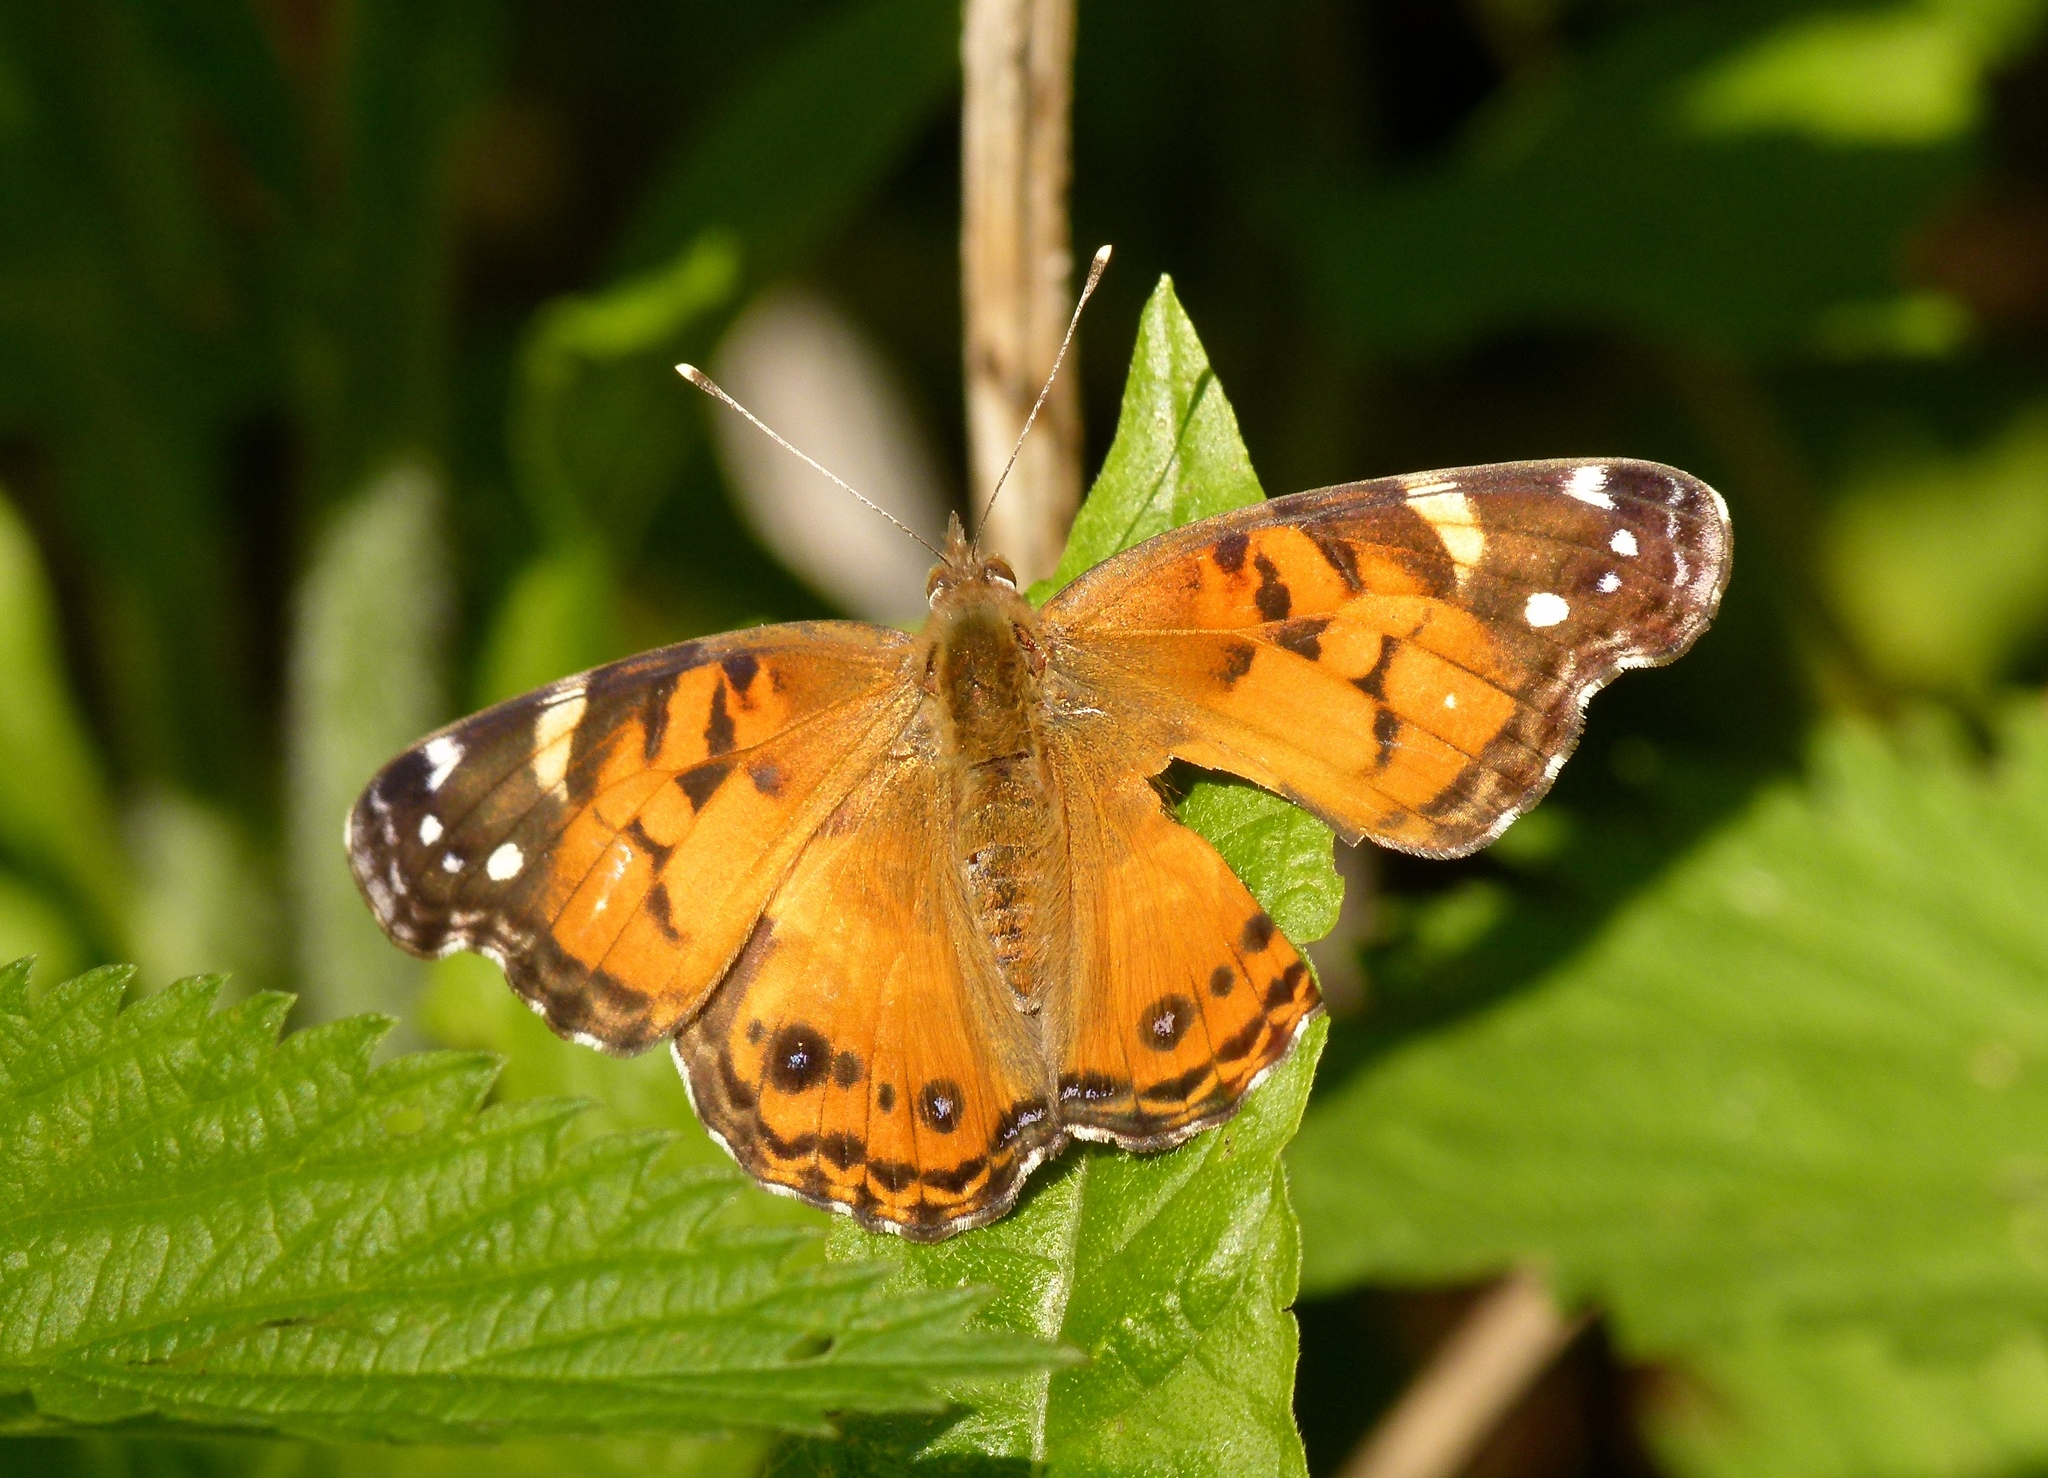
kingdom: Animalia
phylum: Arthropoda
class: Insecta
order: Lepidoptera
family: Nymphalidae
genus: Vanessa
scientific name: Vanessa virginiensis
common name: American lady
